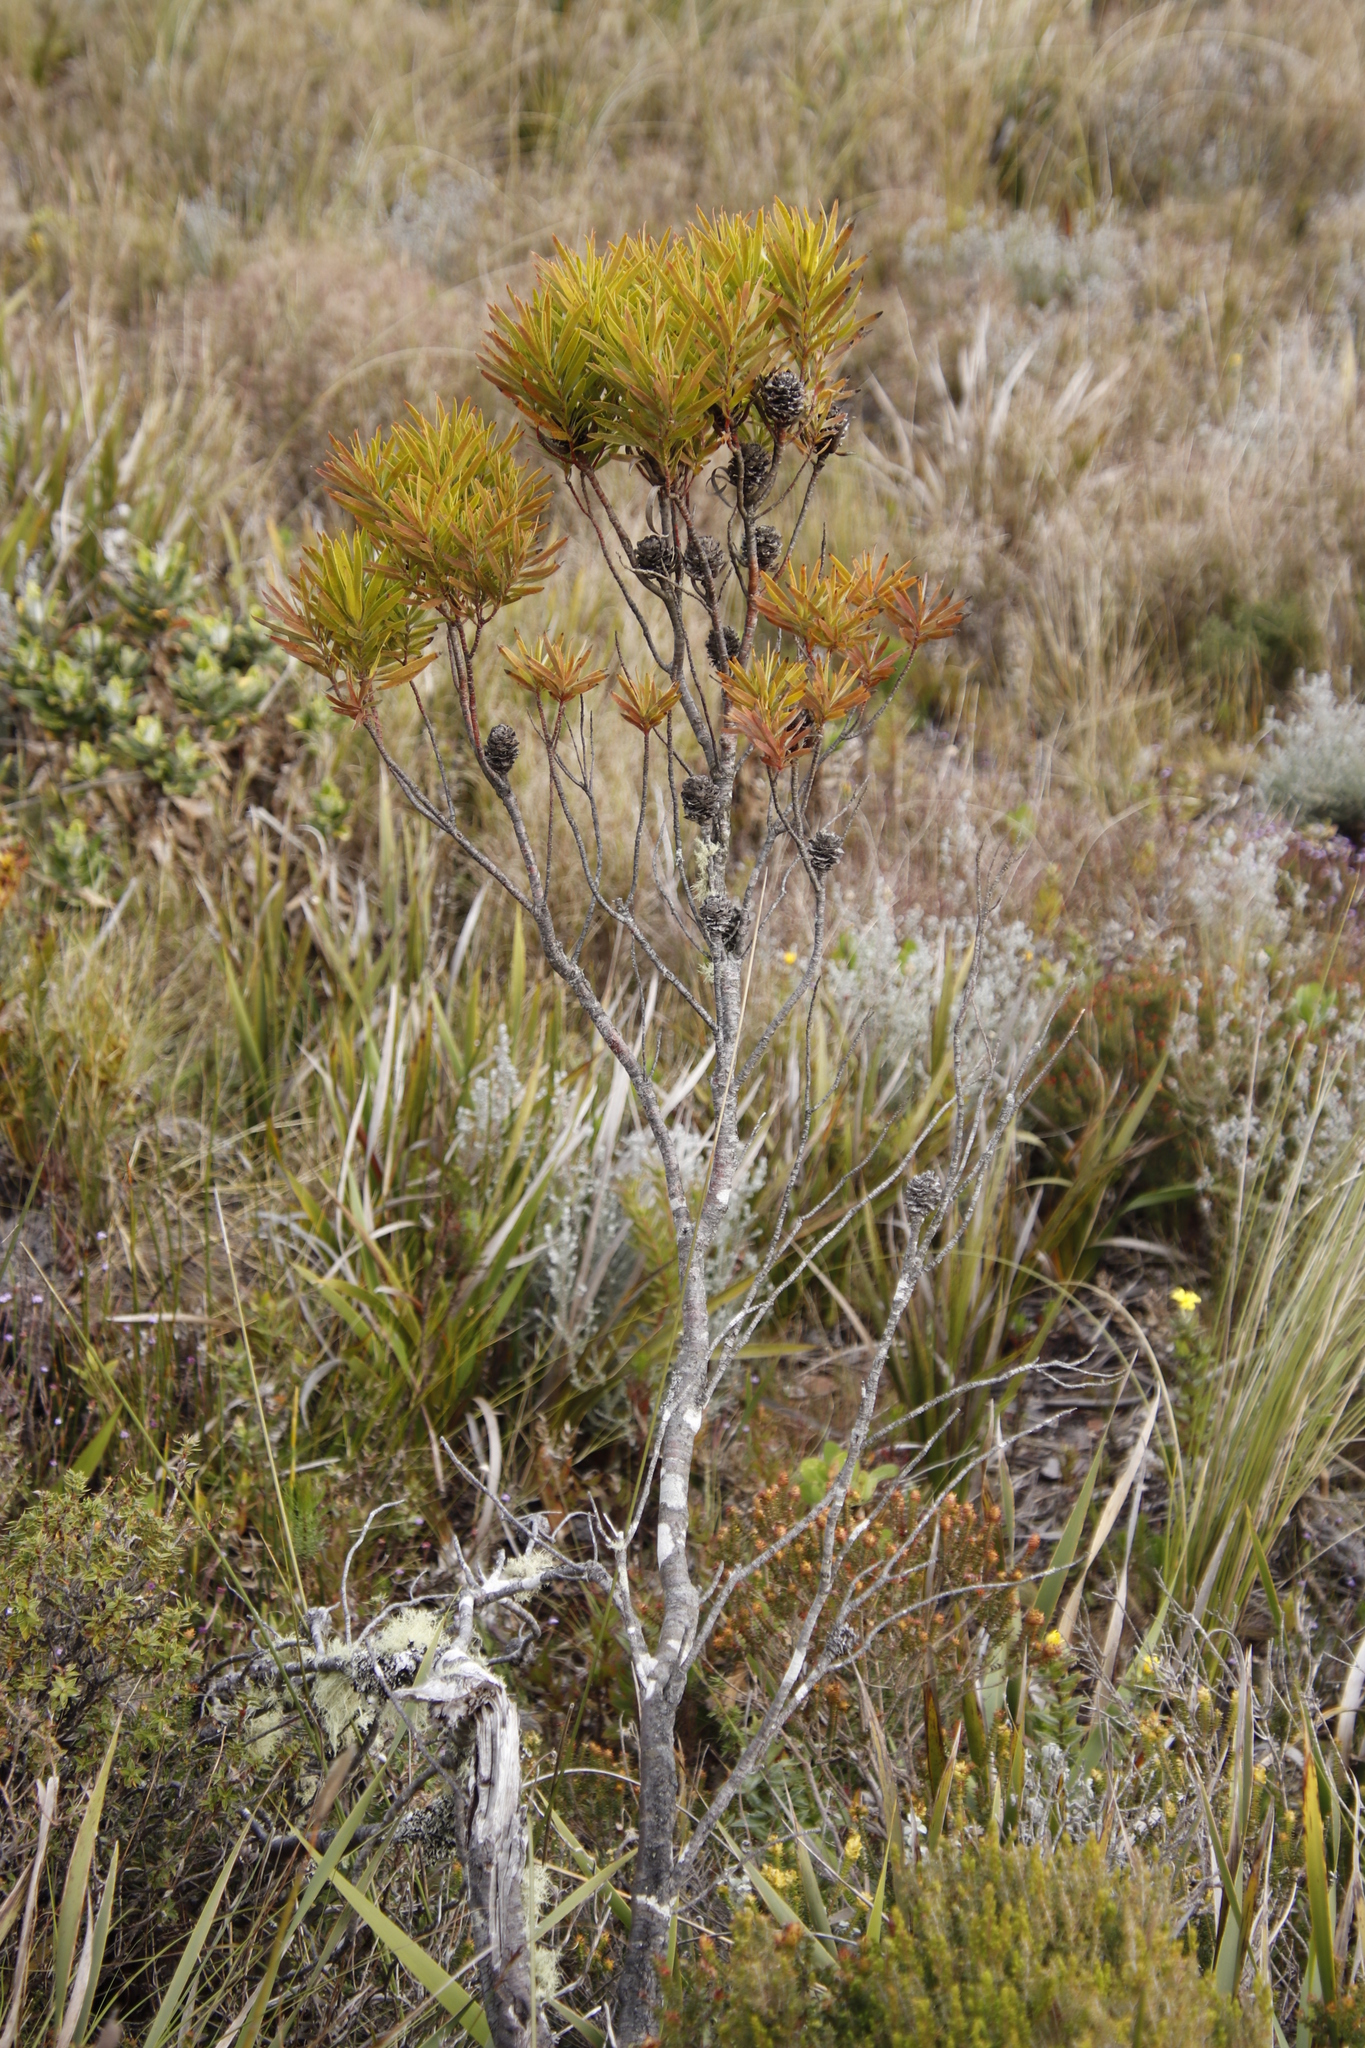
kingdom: Plantae
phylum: Tracheophyta
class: Magnoliopsida
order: Proteales
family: Proteaceae
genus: Leucadendron
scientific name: Leucadendron xanthoconus
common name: Sickle-leaf conebush
